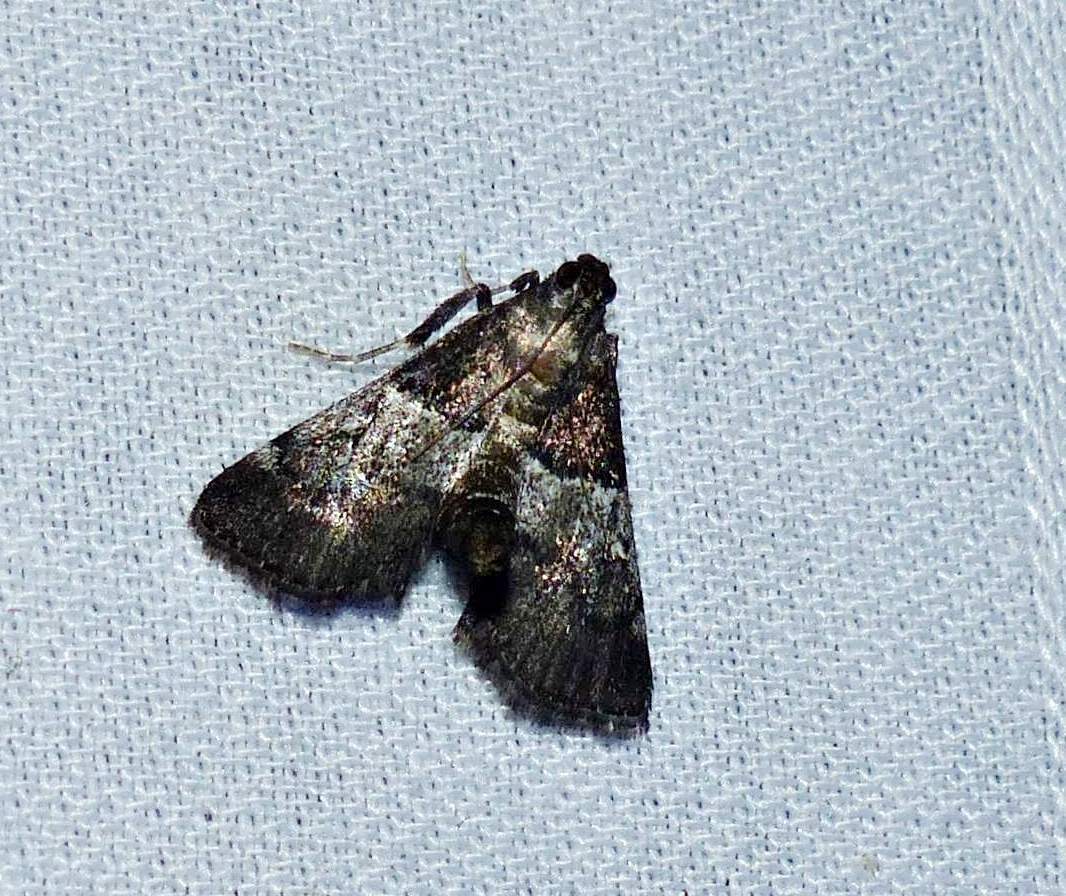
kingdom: Animalia
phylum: Arthropoda
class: Insecta
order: Lepidoptera
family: Pyralidae
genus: Macalla
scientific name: Macalla zelleri
